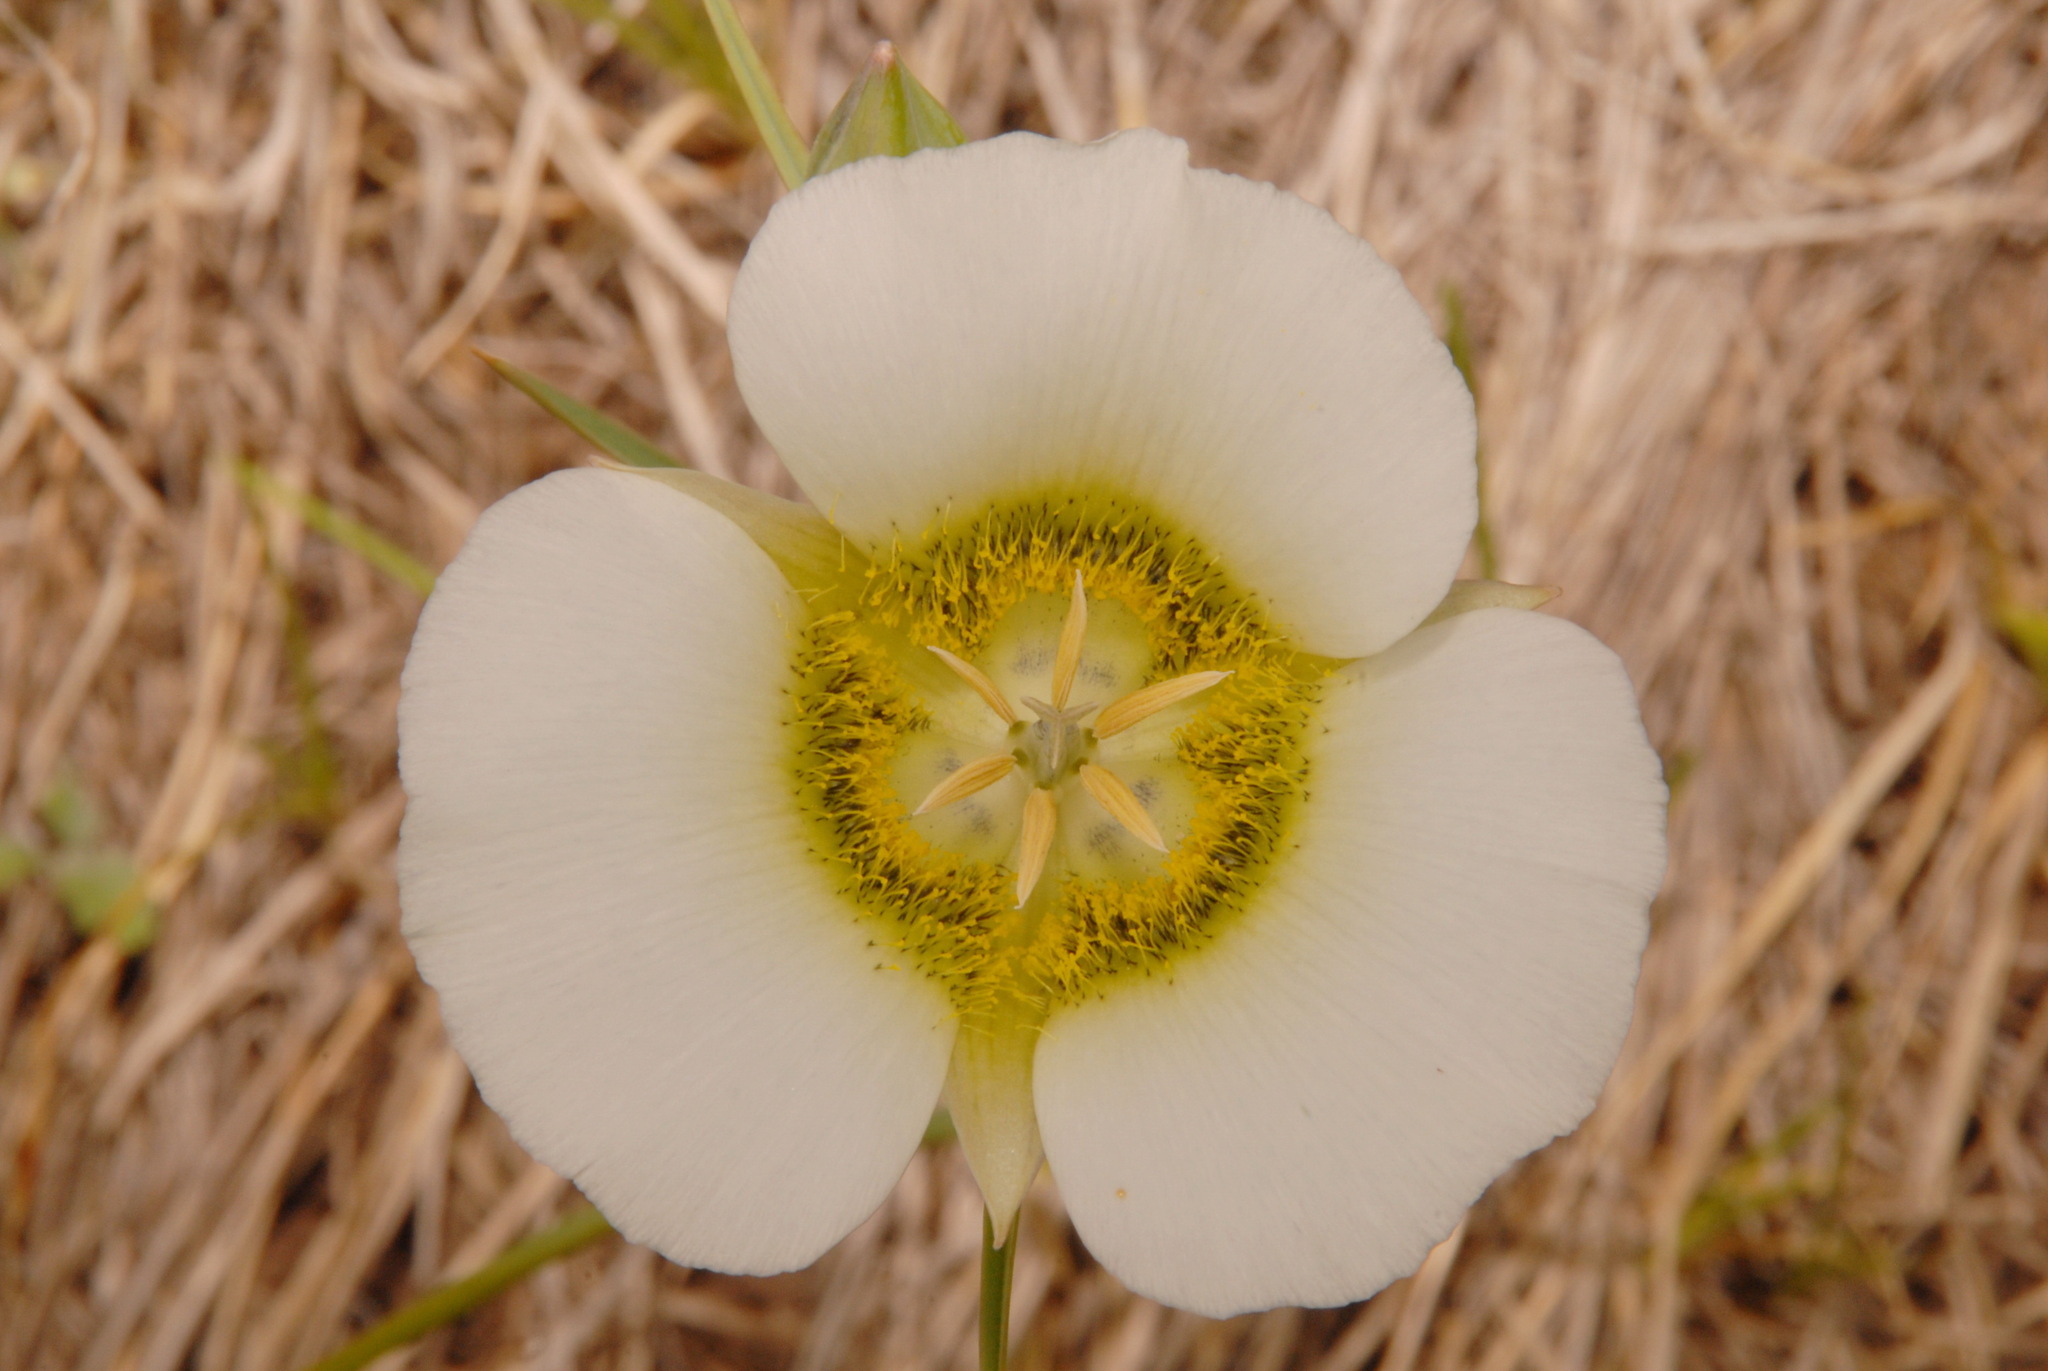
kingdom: Plantae
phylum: Tracheophyta
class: Liliopsida
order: Liliales
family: Liliaceae
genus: Calochortus
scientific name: Calochortus gunnisonii
